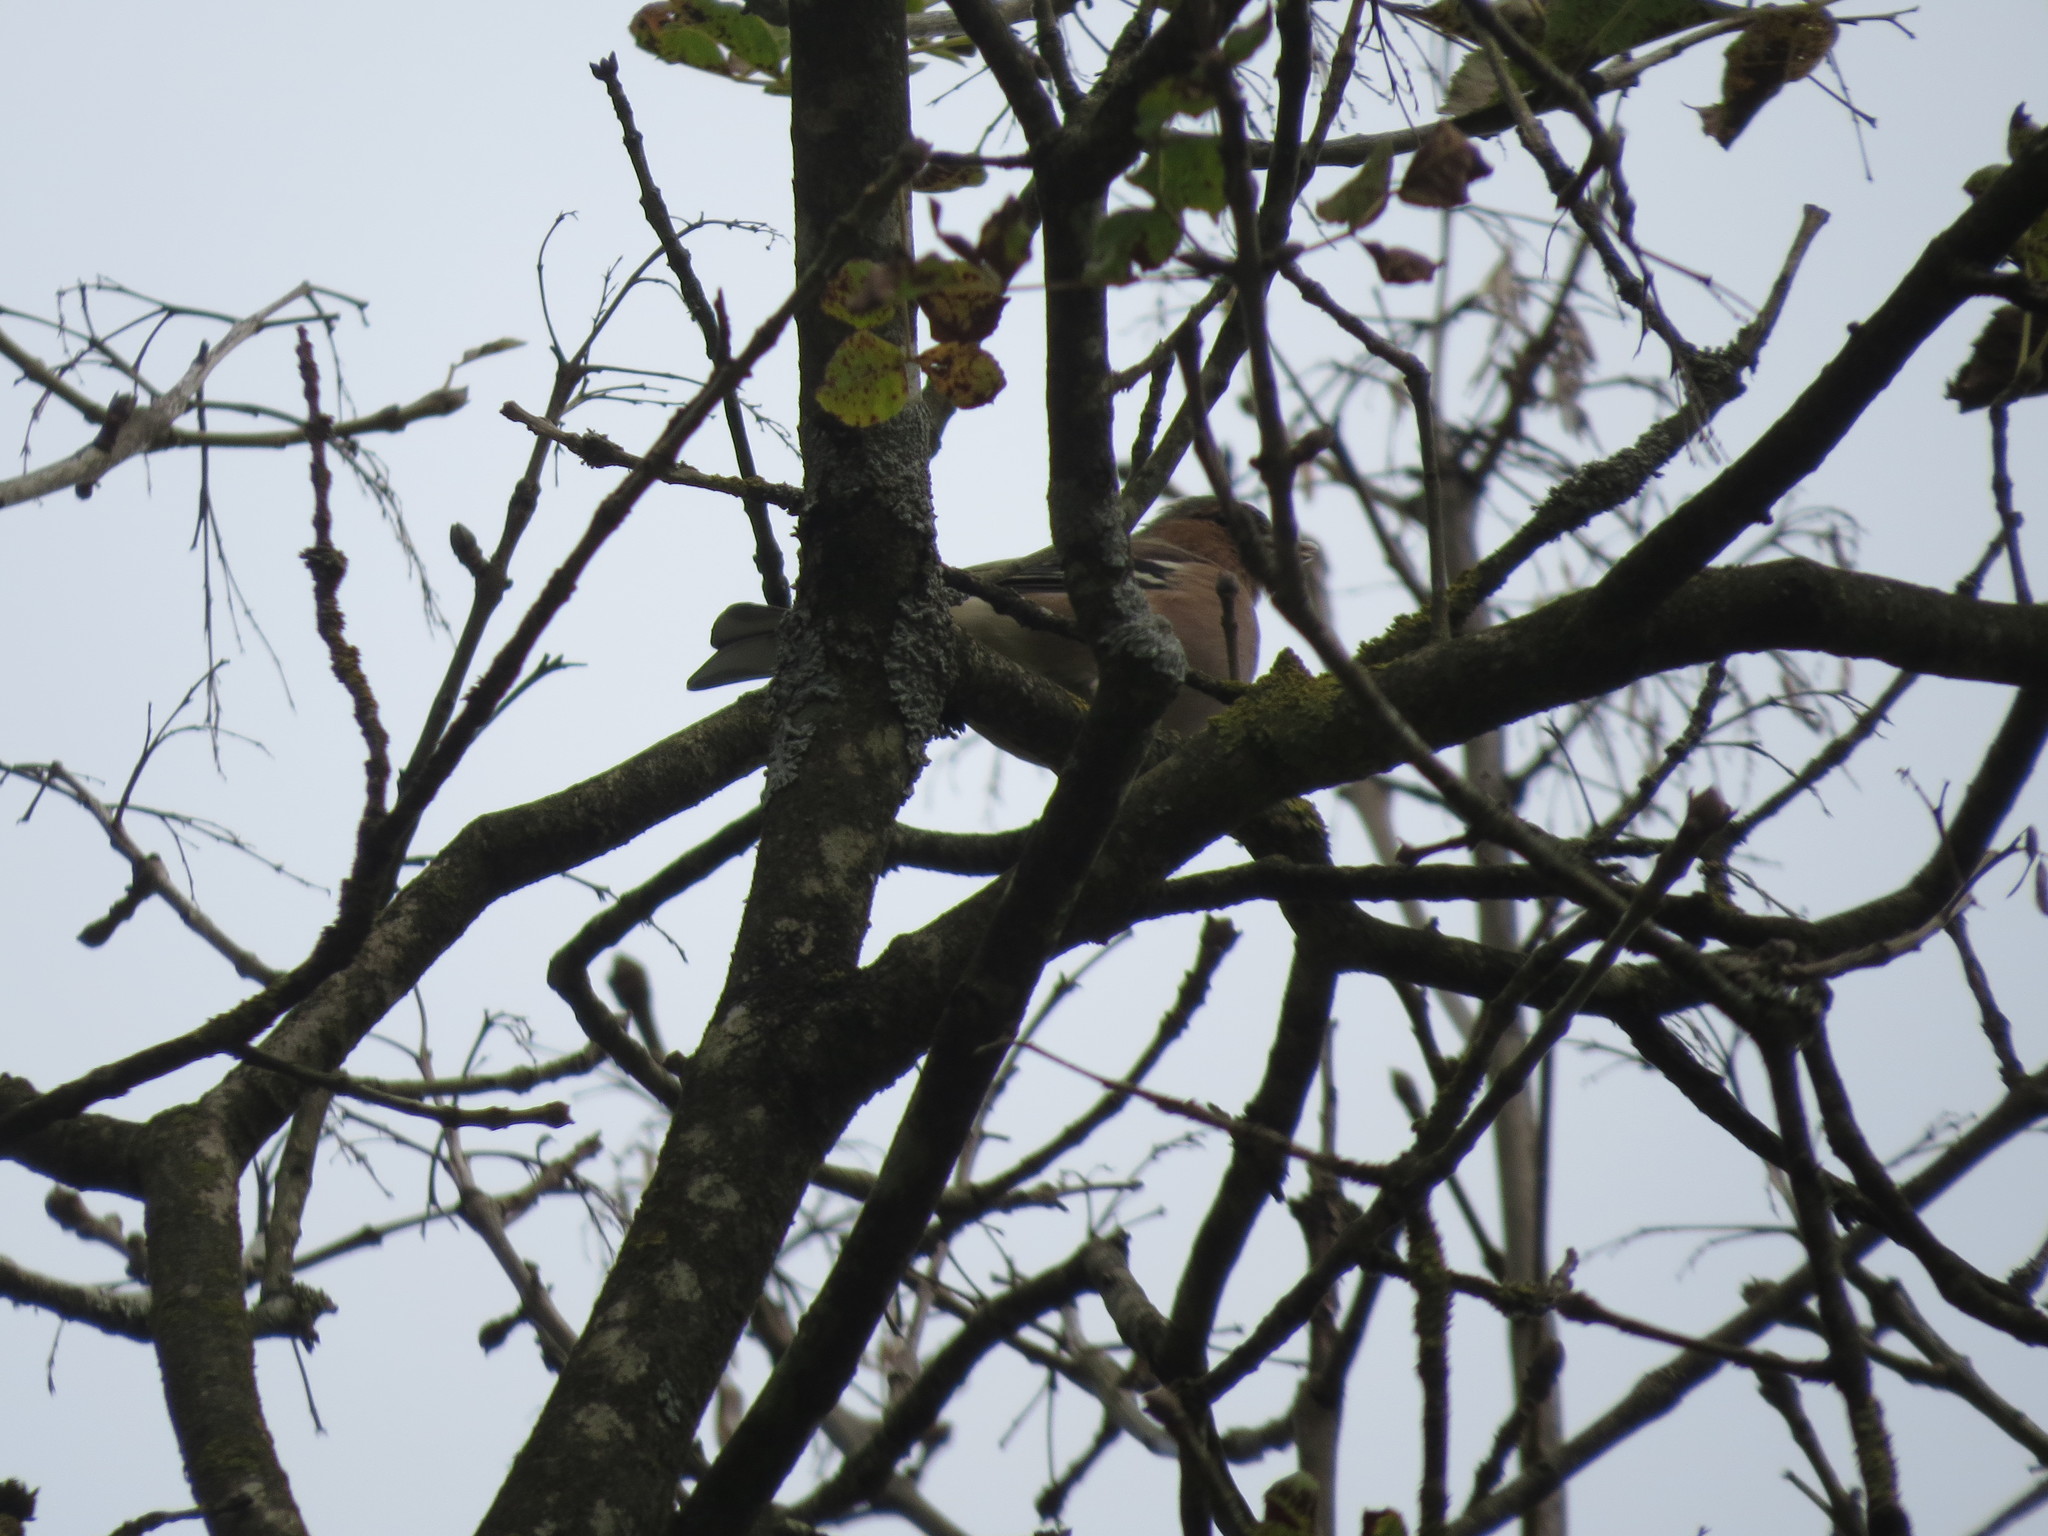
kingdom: Animalia
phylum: Chordata
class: Aves
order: Passeriformes
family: Fringillidae
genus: Fringilla
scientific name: Fringilla coelebs
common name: Common chaffinch
